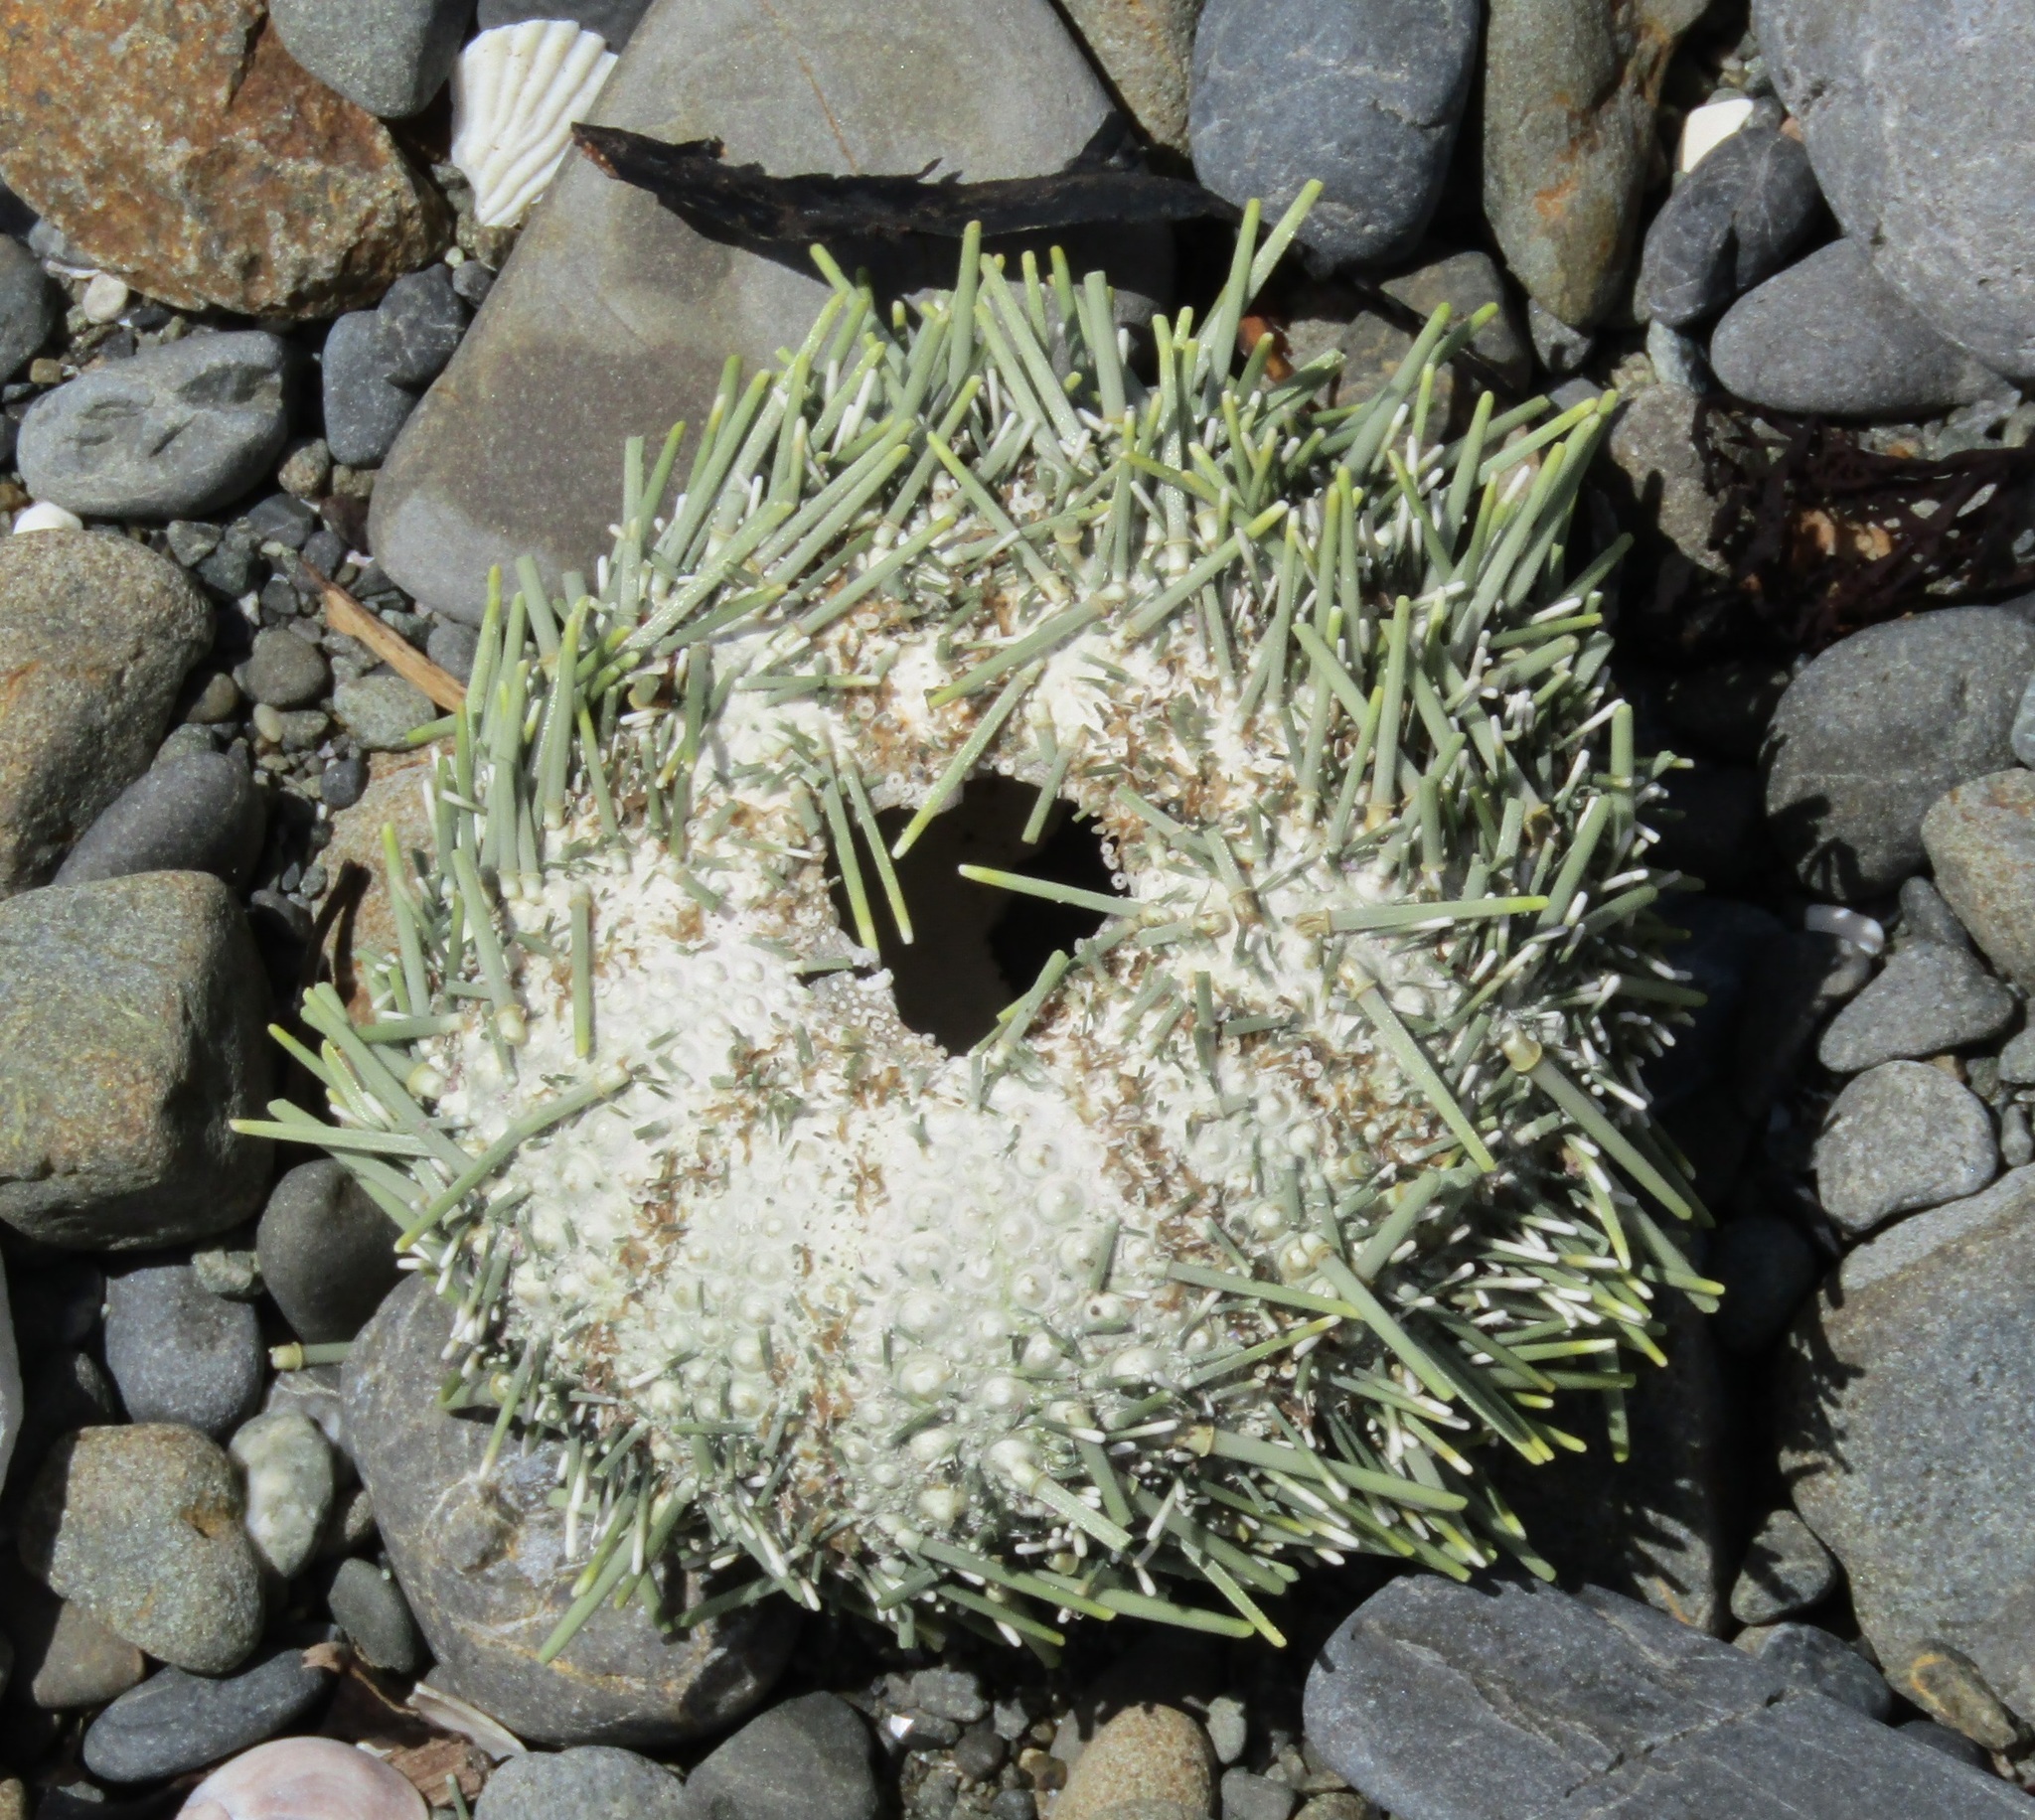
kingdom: Animalia
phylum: Echinodermata
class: Echinoidea
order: Camarodonta
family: Echinometridae
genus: Evechinus
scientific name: Evechinus chloroticus
